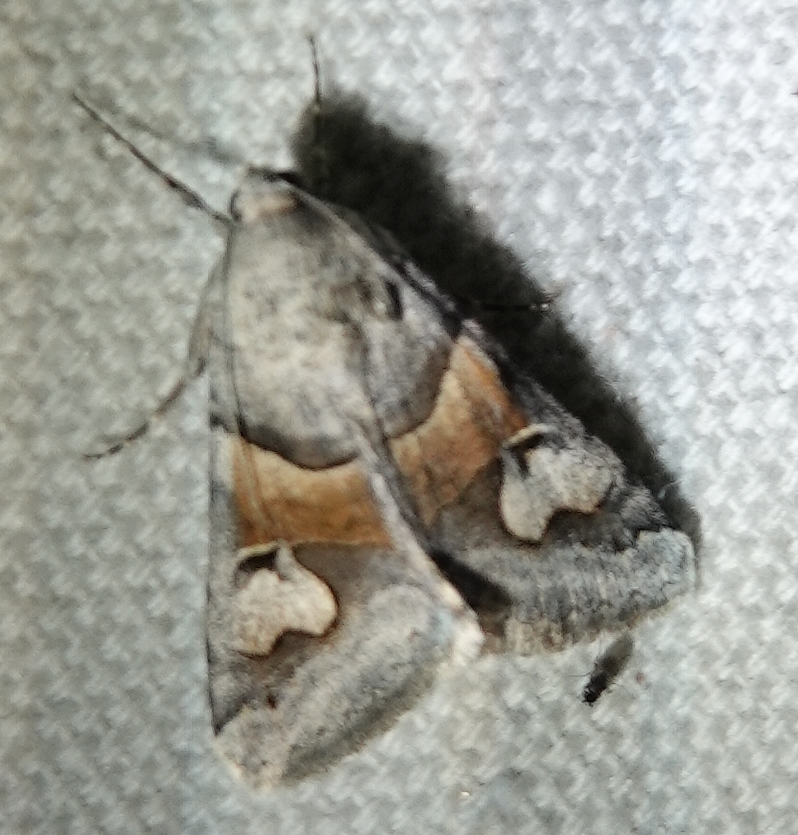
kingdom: Animalia
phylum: Arthropoda
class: Insecta
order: Lepidoptera
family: Erebidae
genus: Drasteria
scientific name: Drasteria pallescens
